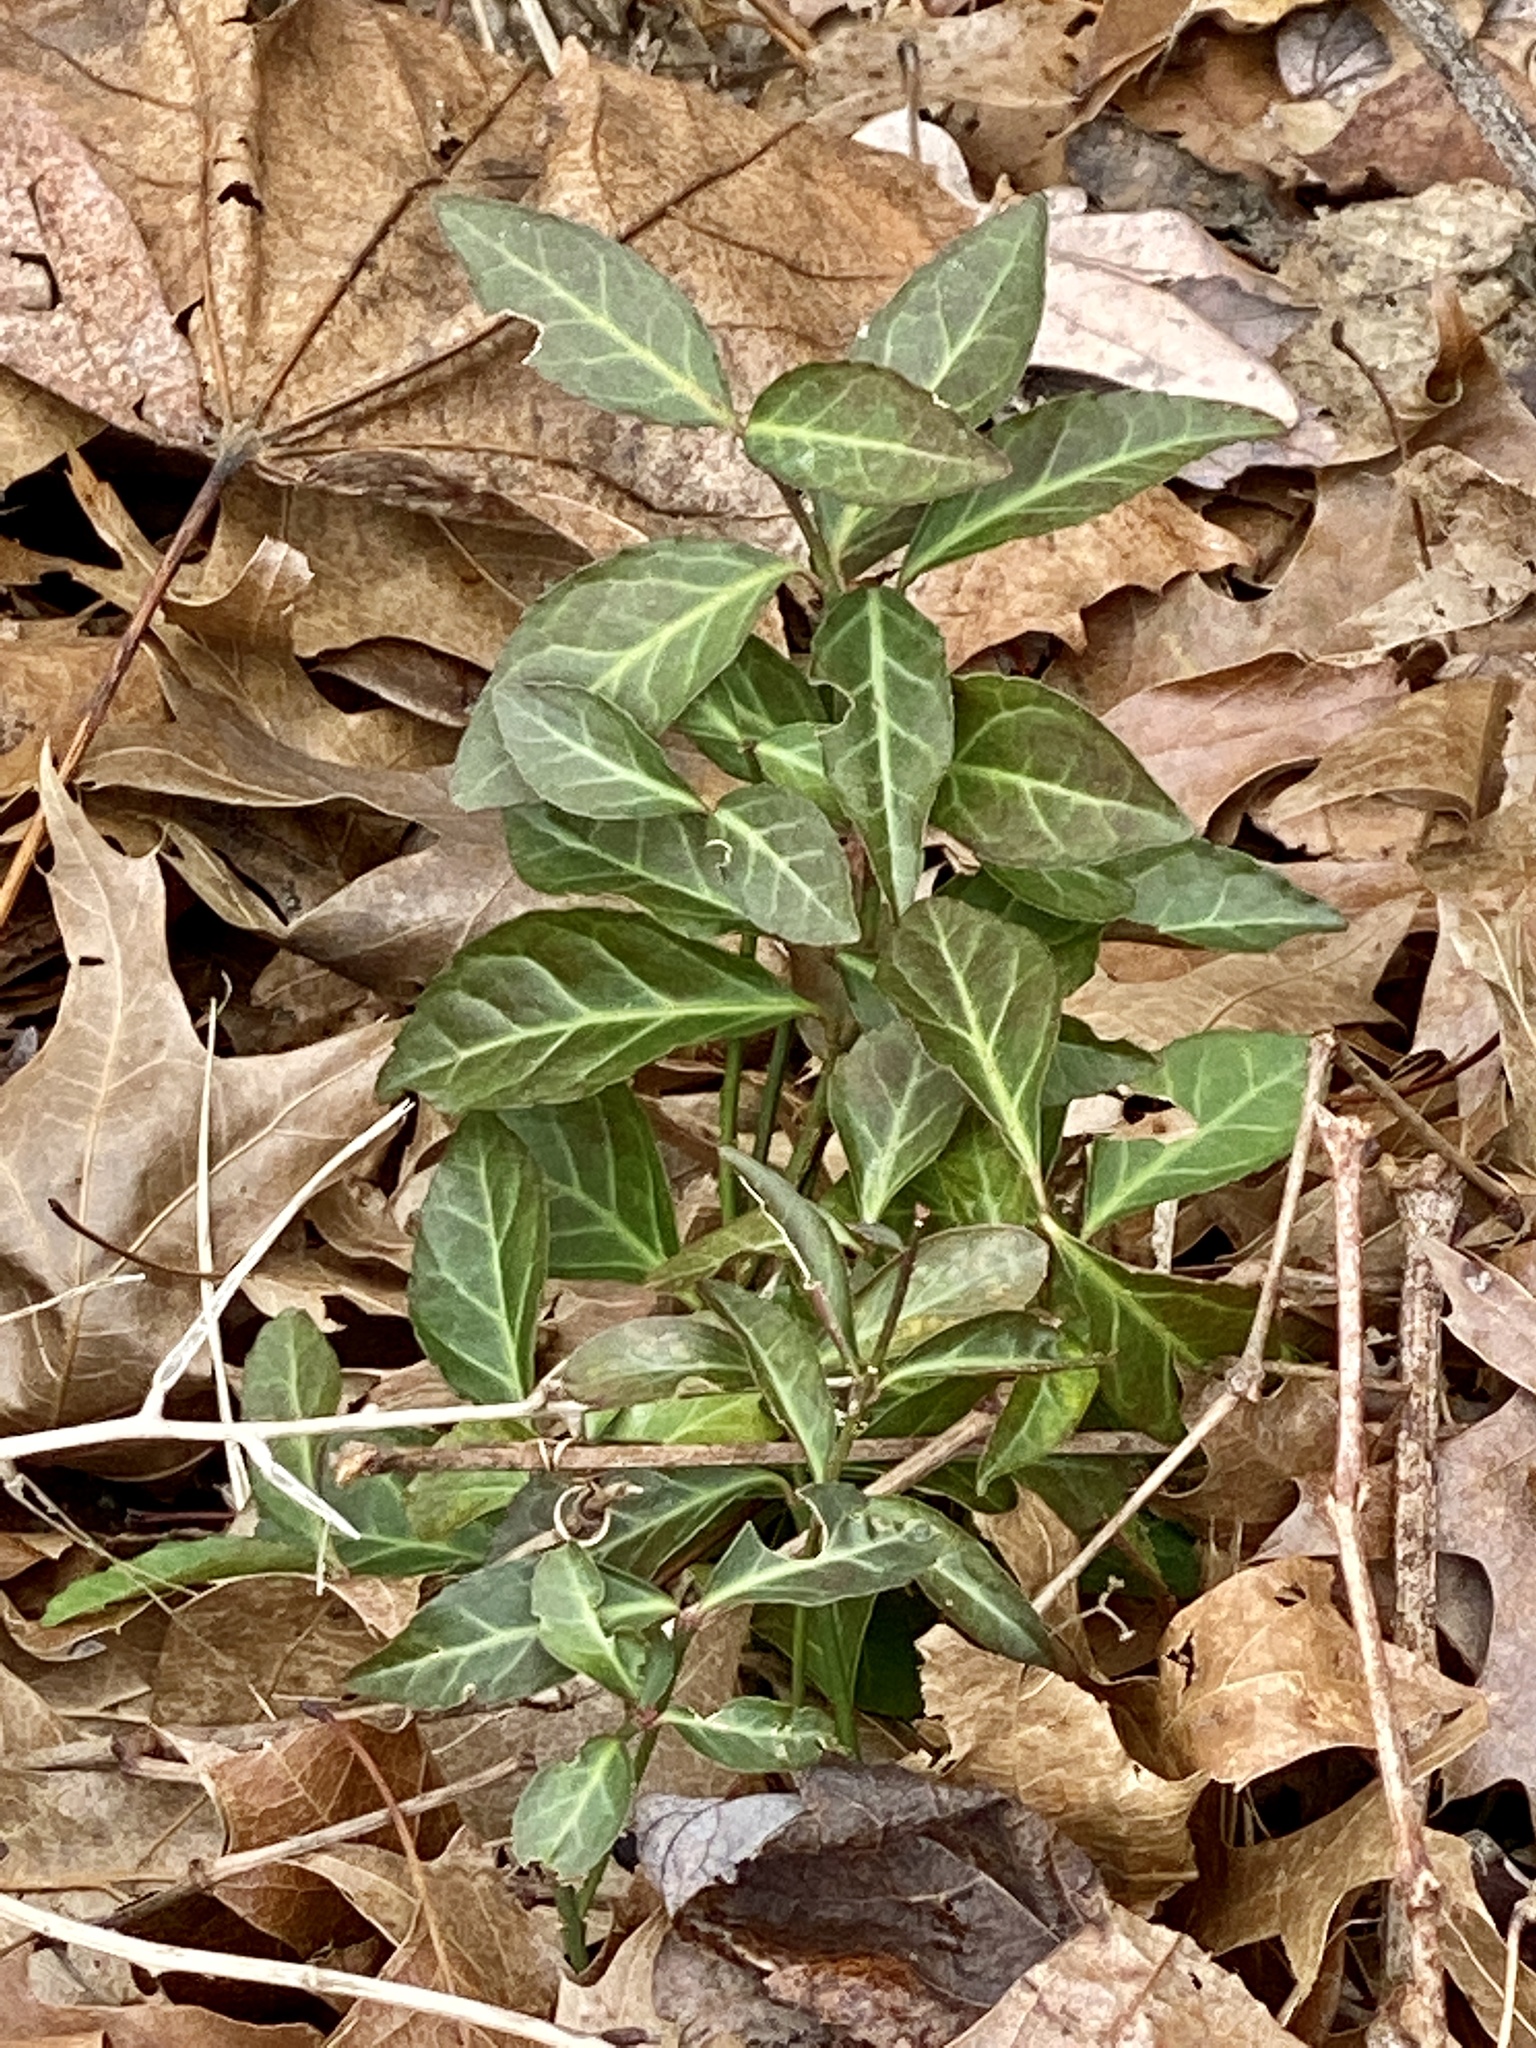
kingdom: Plantae
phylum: Tracheophyta
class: Magnoliopsida
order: Celastrales
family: Celastraceae
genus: Euonymus
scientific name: Euonymus fortunei
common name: Climbing euonymus
